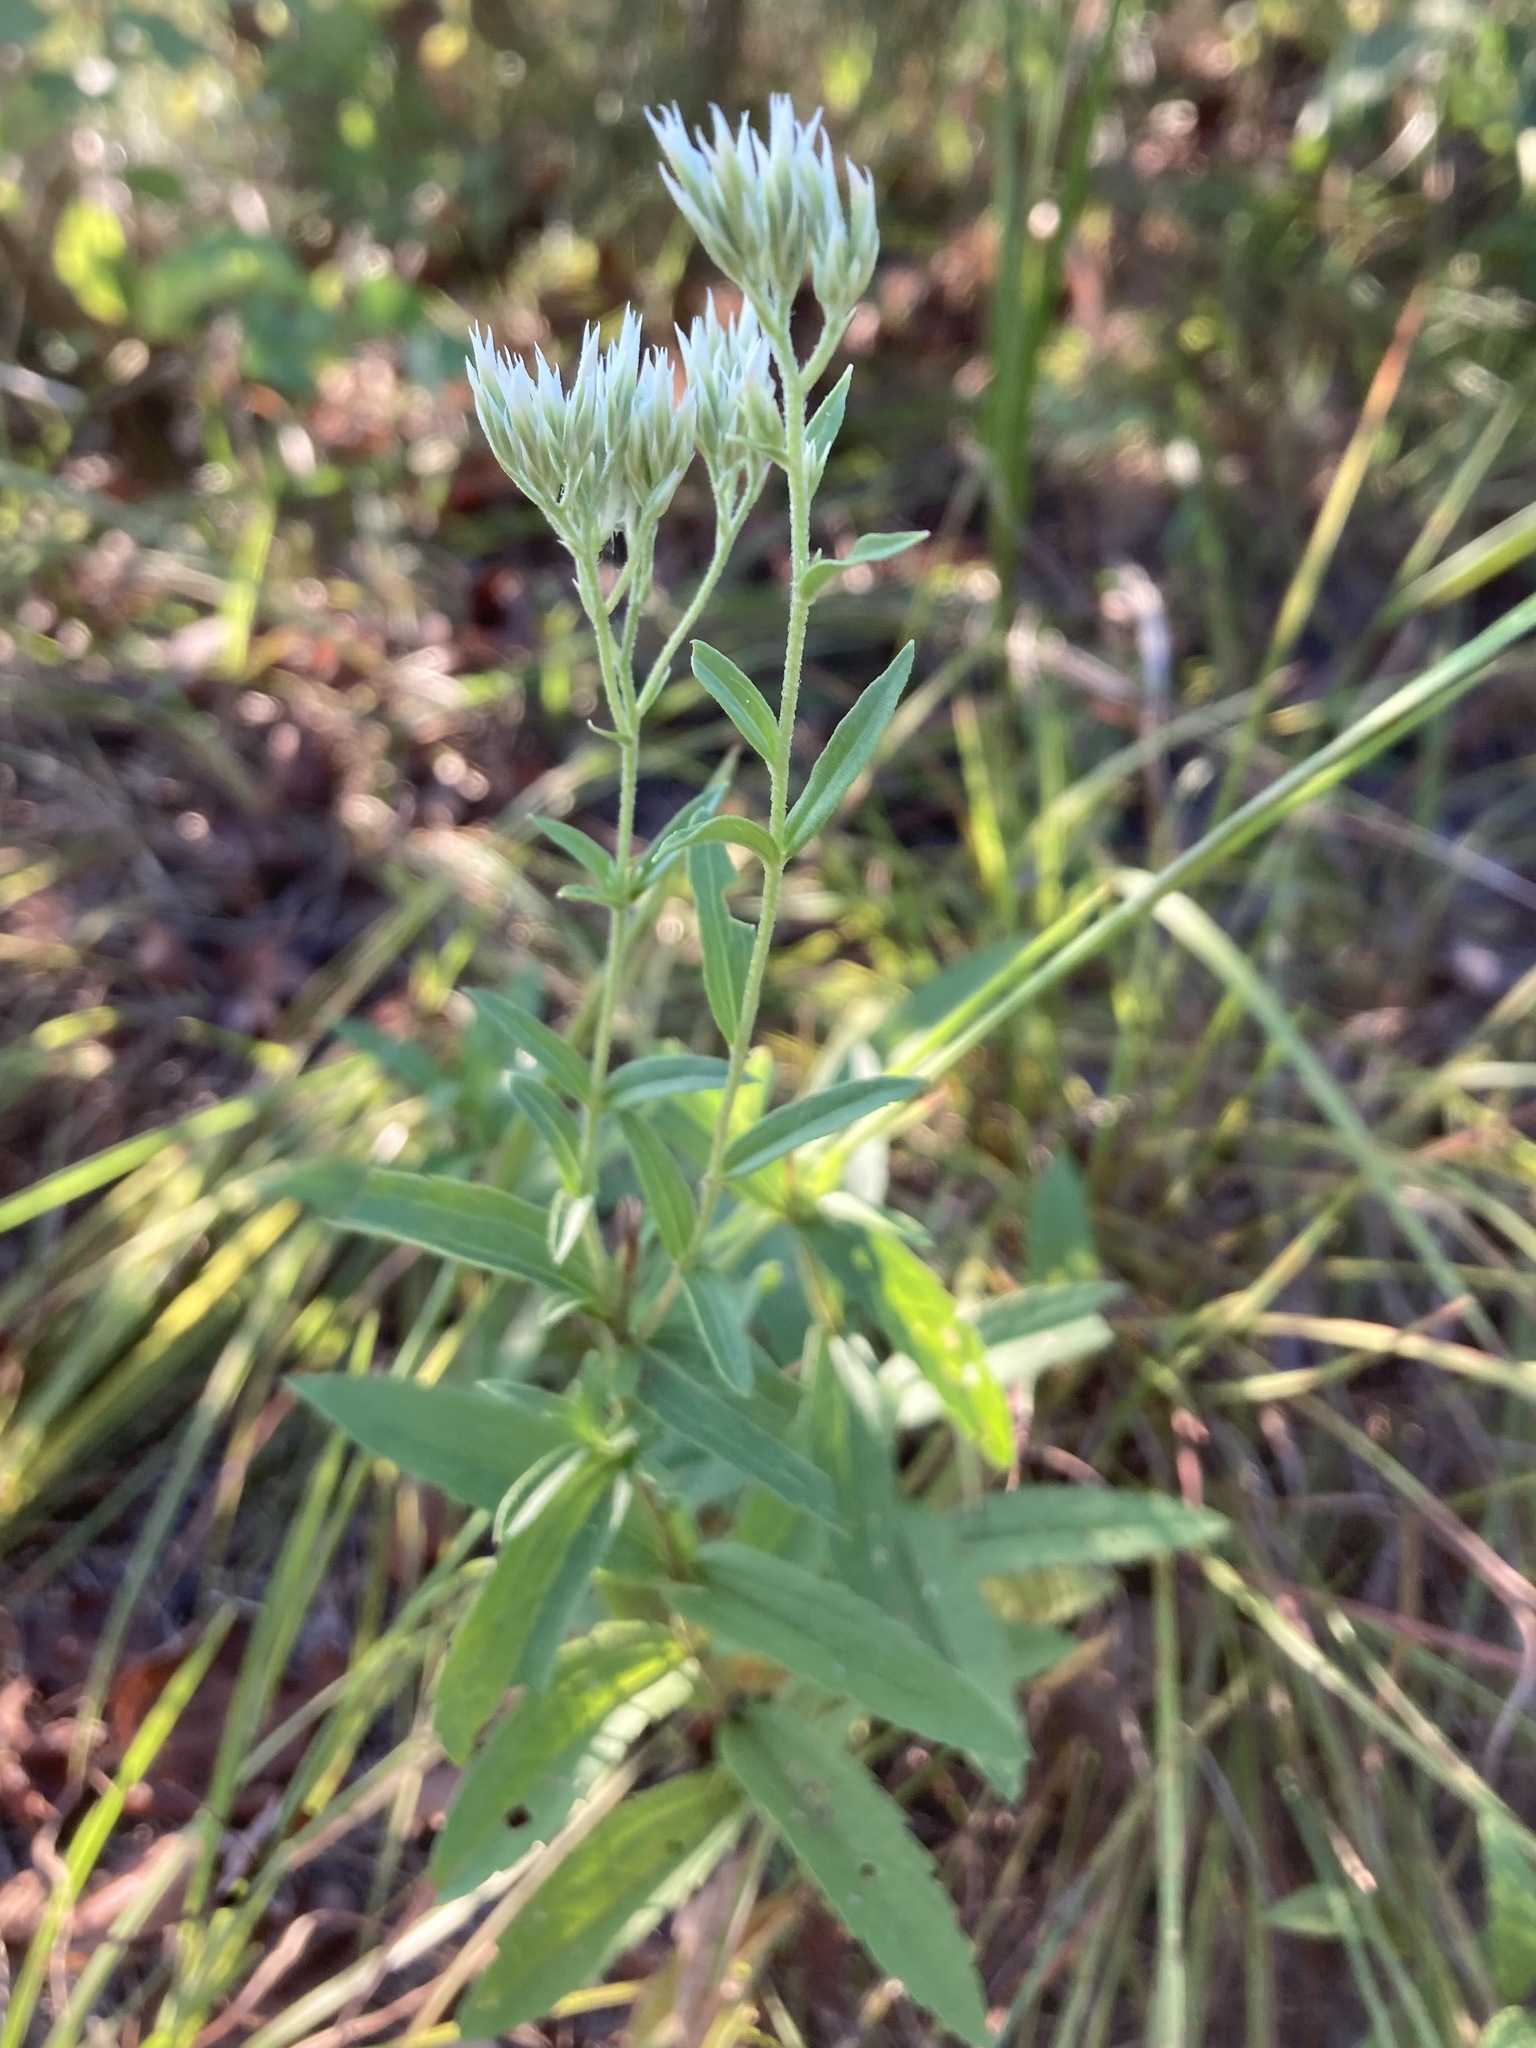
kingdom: Plantae
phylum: Tracheophyta
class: Magnoliopsida
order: Asterales
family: Asteraceae
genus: Eupatorium
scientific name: Eupatorium subvenosum
